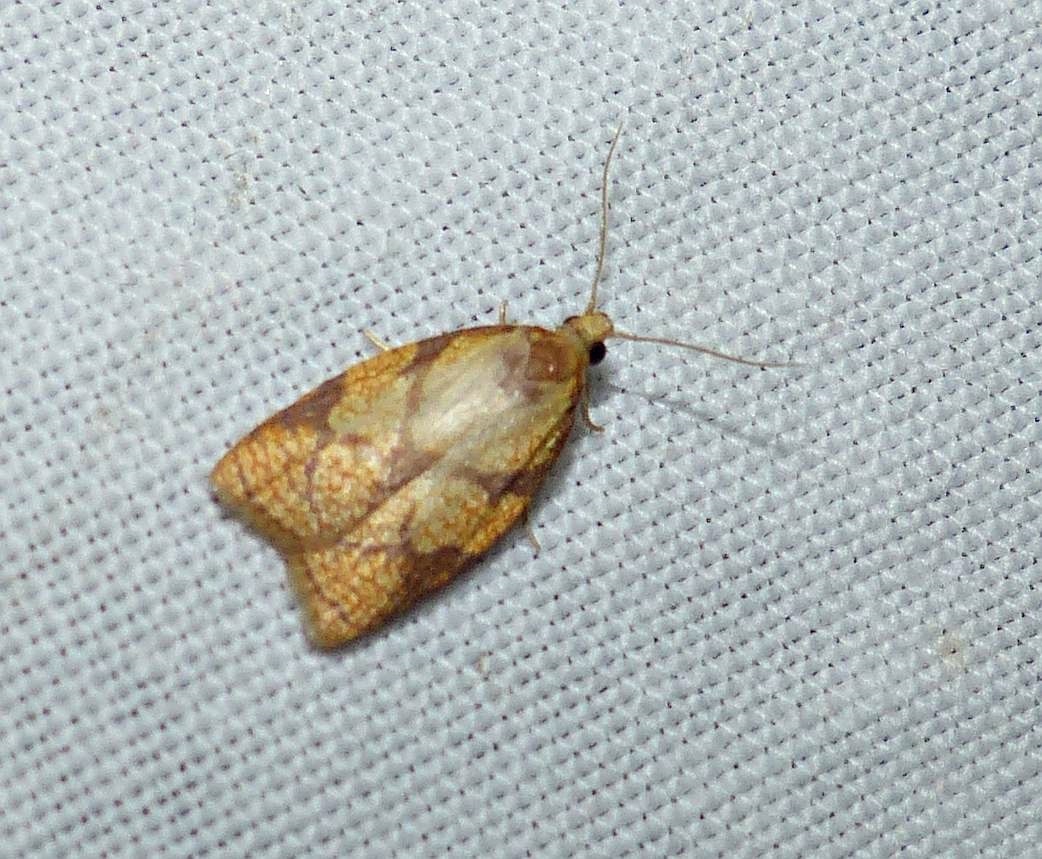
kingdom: Animalia
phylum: Arthropoda
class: Insecta
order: Lepidoptera
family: Tortricidae
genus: Cenopis
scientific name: Cenopis reticulatana
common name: Reticulated fruitworm moth
